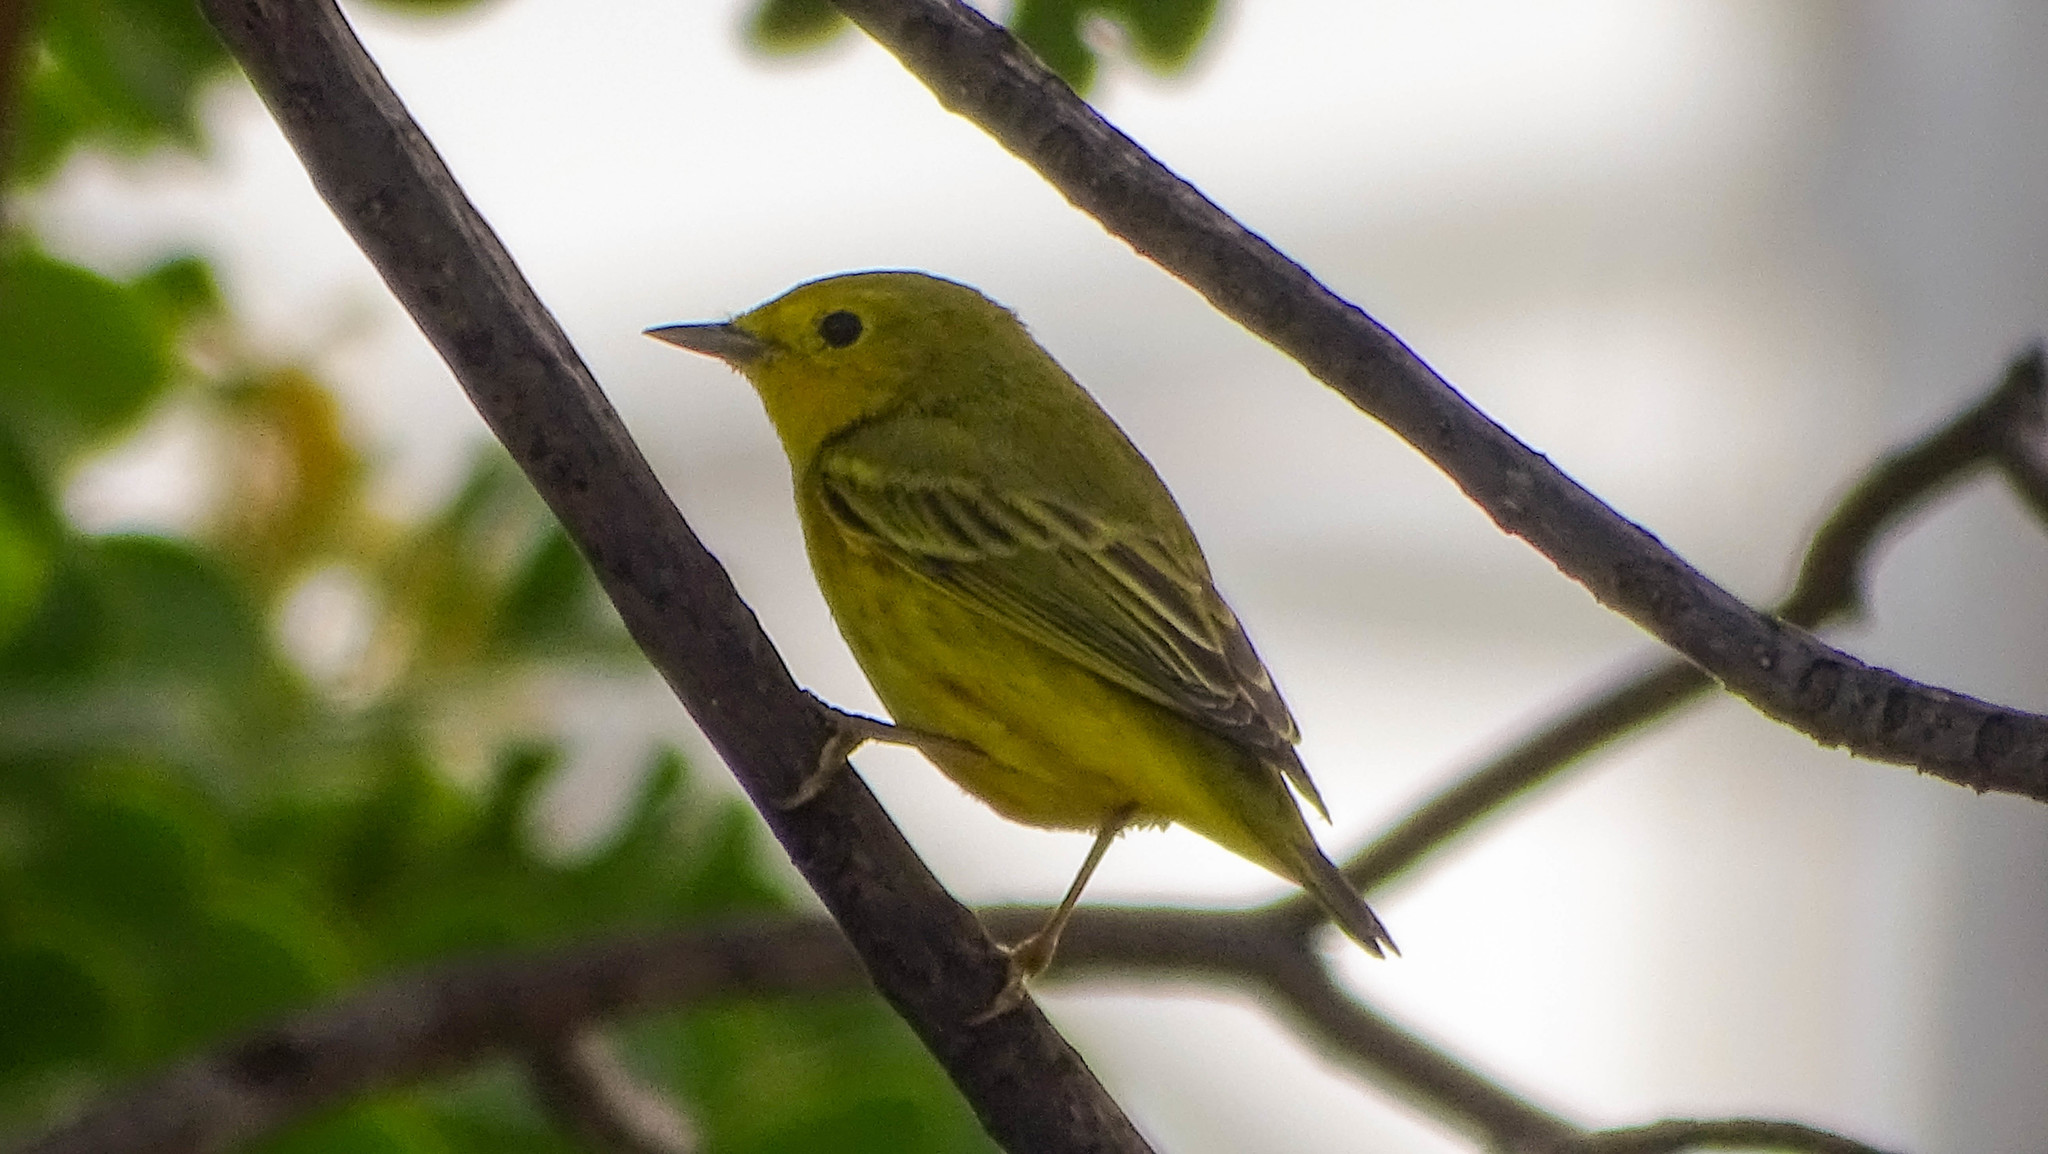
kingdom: Animalia
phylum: Chordata
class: Aves
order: Passeriformes
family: Parulidae
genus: Setophaga
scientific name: Setophaga petechia
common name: Yellow warbler
